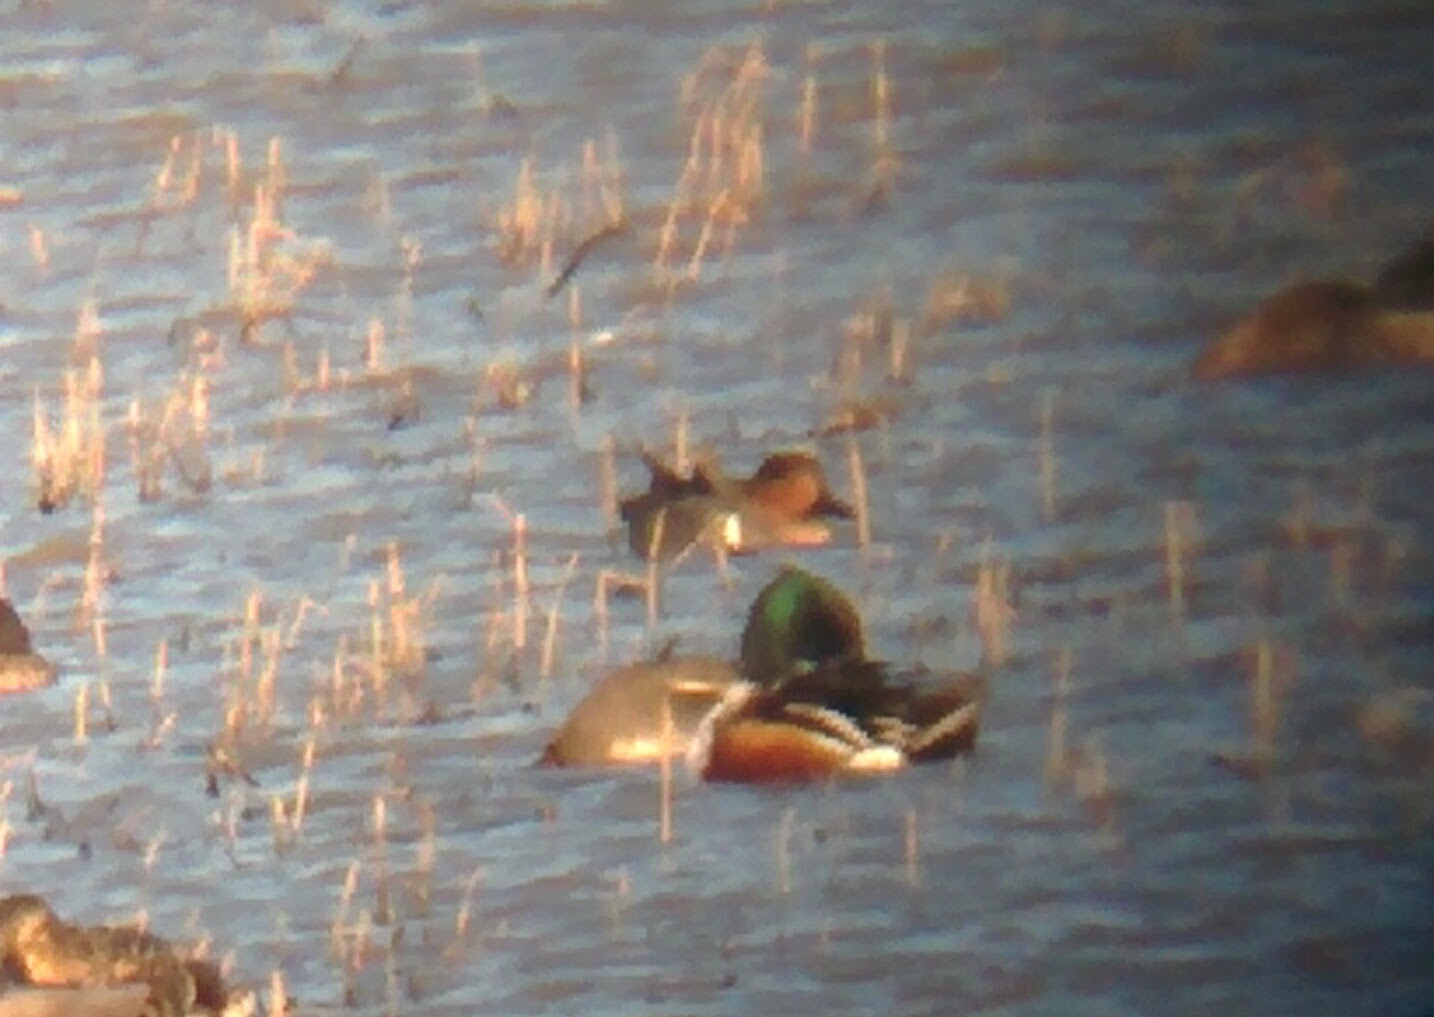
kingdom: Animalia
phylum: Chordata
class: Aves
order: Anseriformes
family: Anatidae
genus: Anas
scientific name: Anas carolinensis
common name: Green-winged teal
